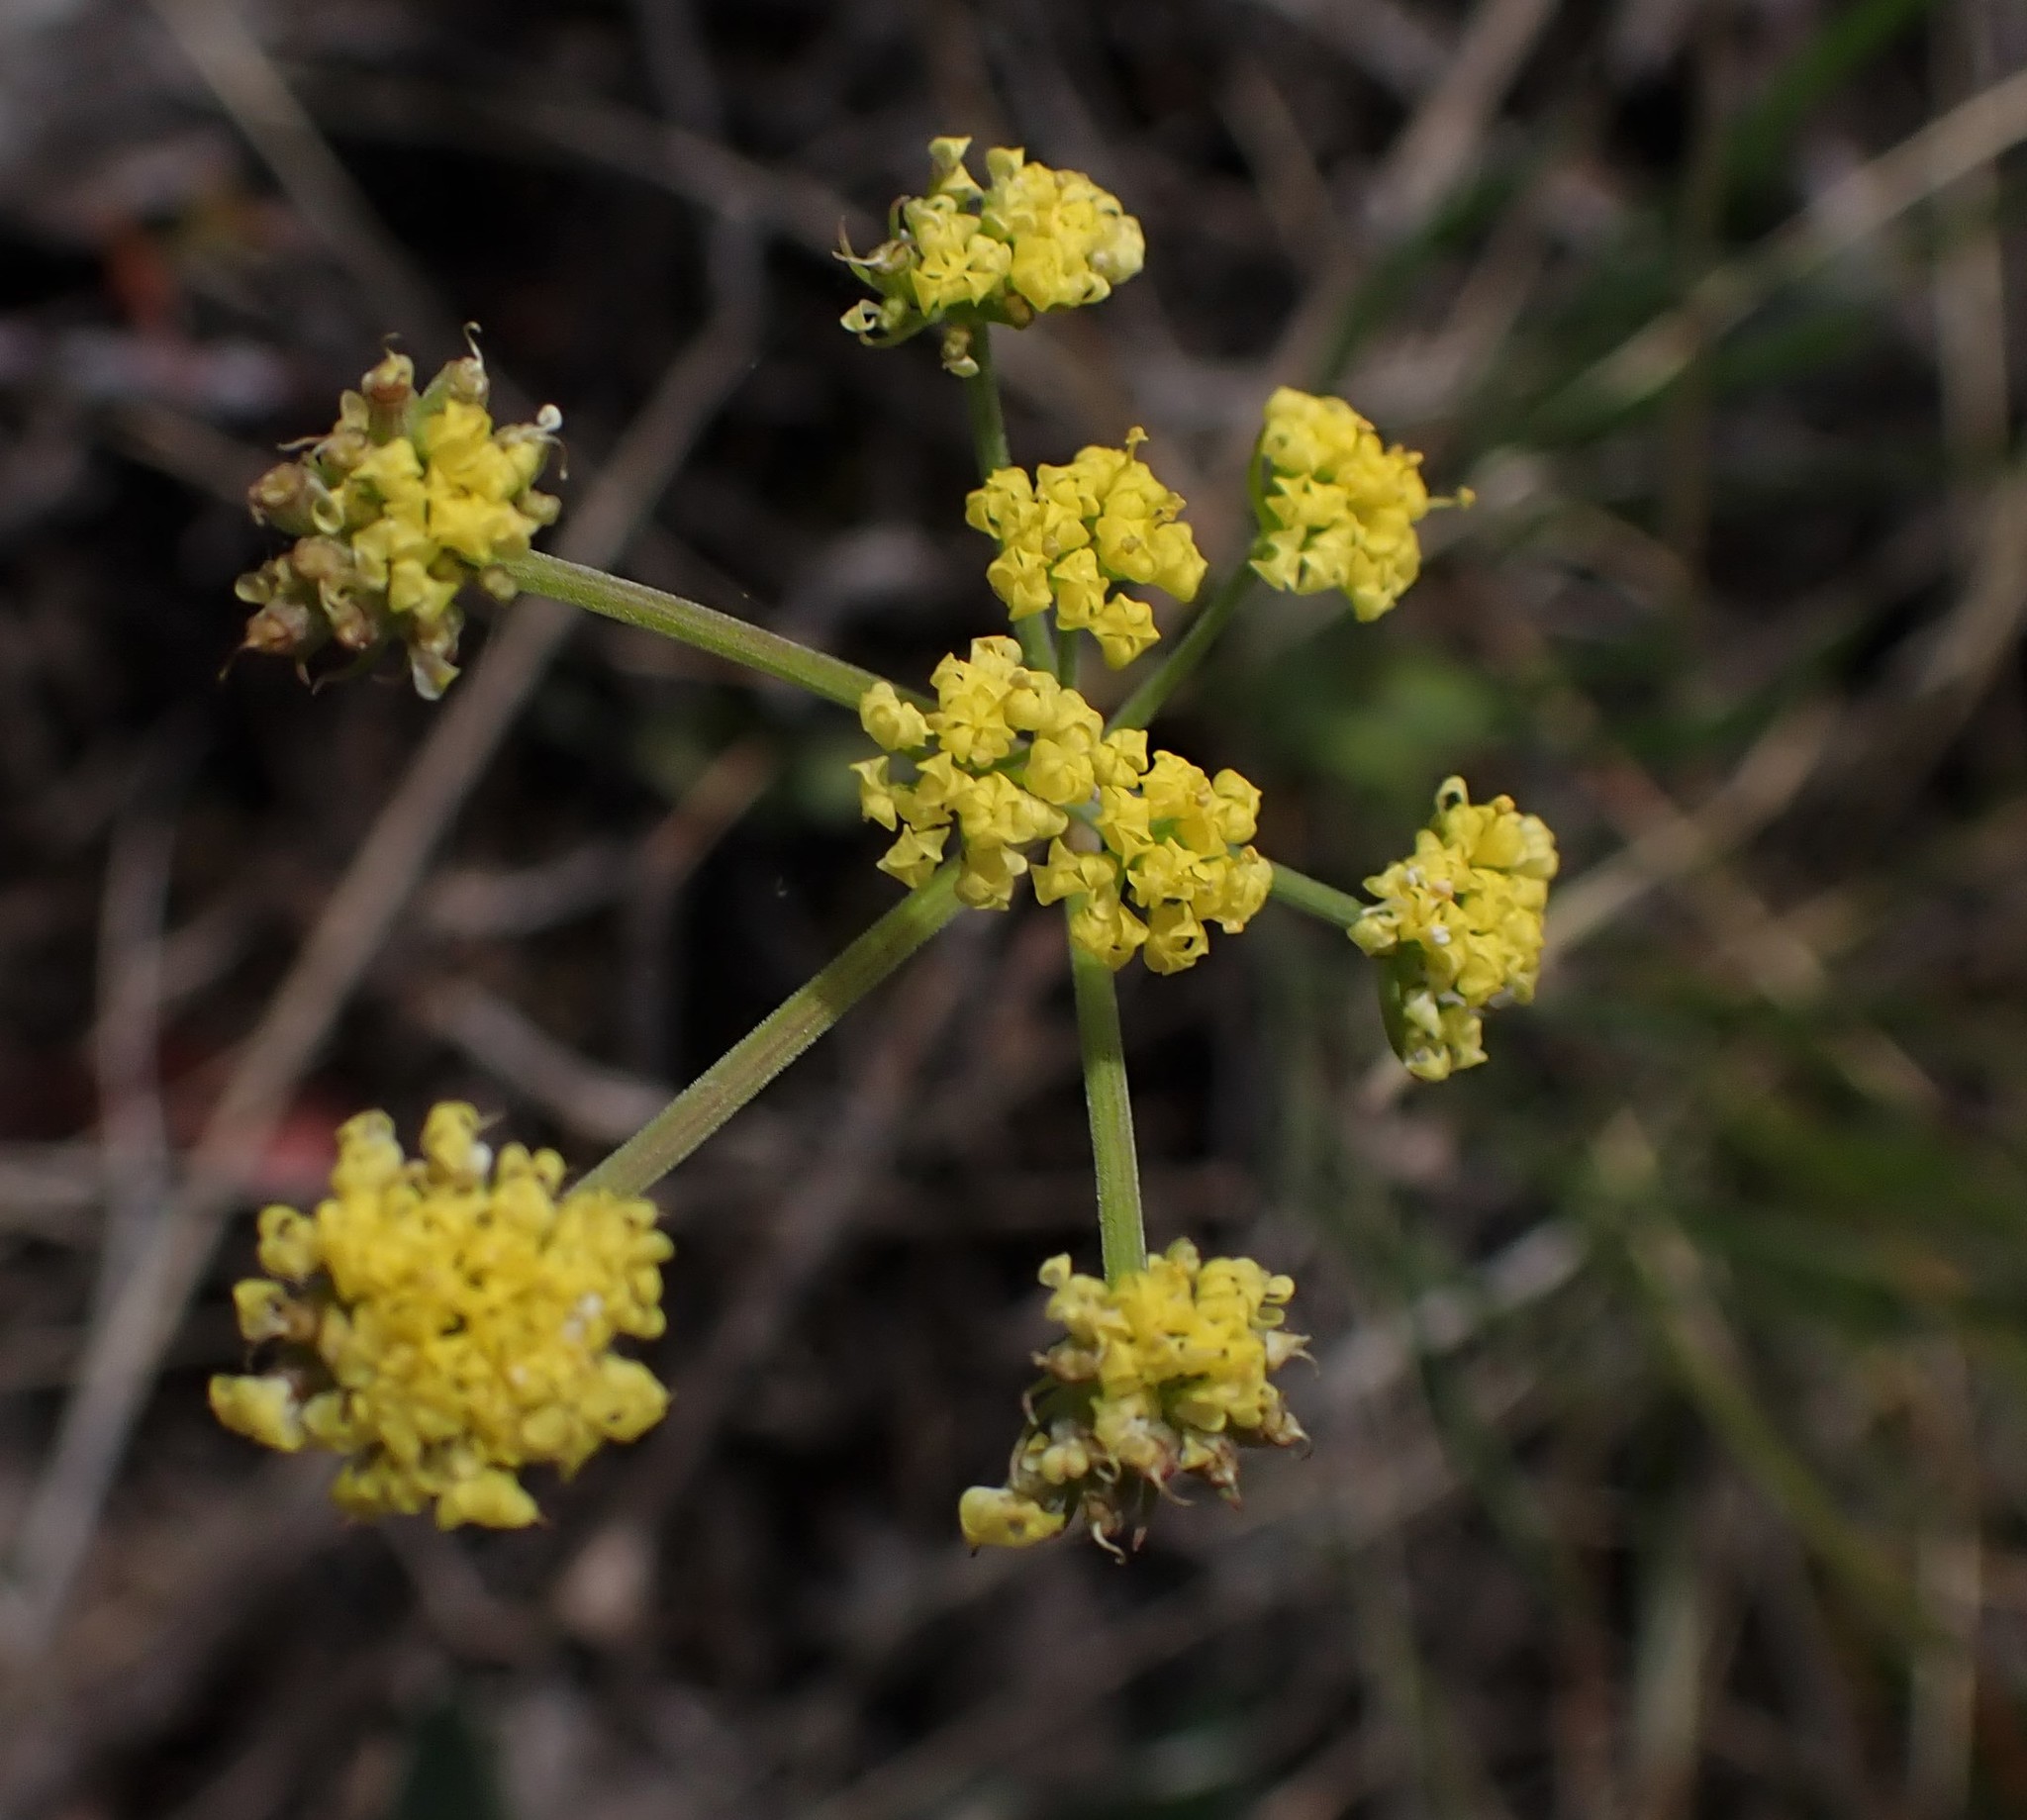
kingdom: Plantae
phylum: Tracheophyta
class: Magnoliopsida
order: Apiales
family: Apiaceae
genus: Lomatium
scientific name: Lomatium
